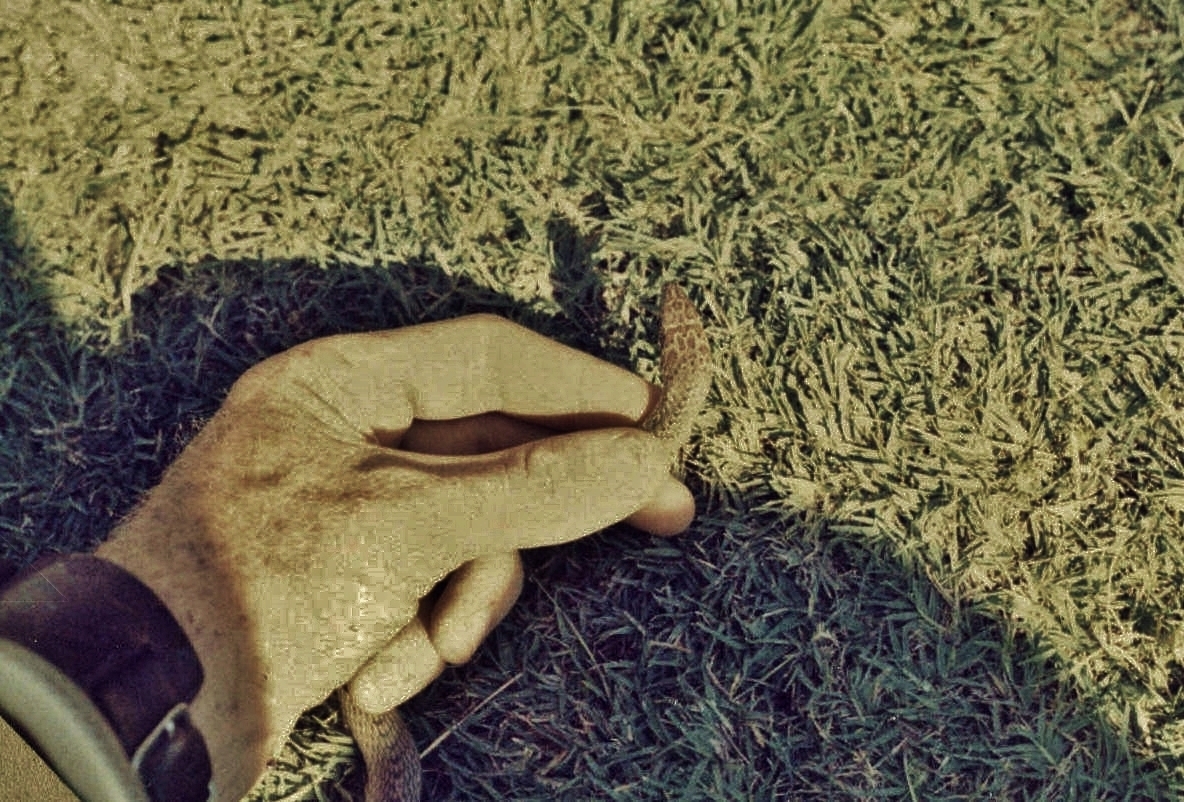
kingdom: Animalia
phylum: Chordata
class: Squamata
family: Psammophiidae
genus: Psammophis
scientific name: Psammophis mossambicus
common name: Olive grass snake
